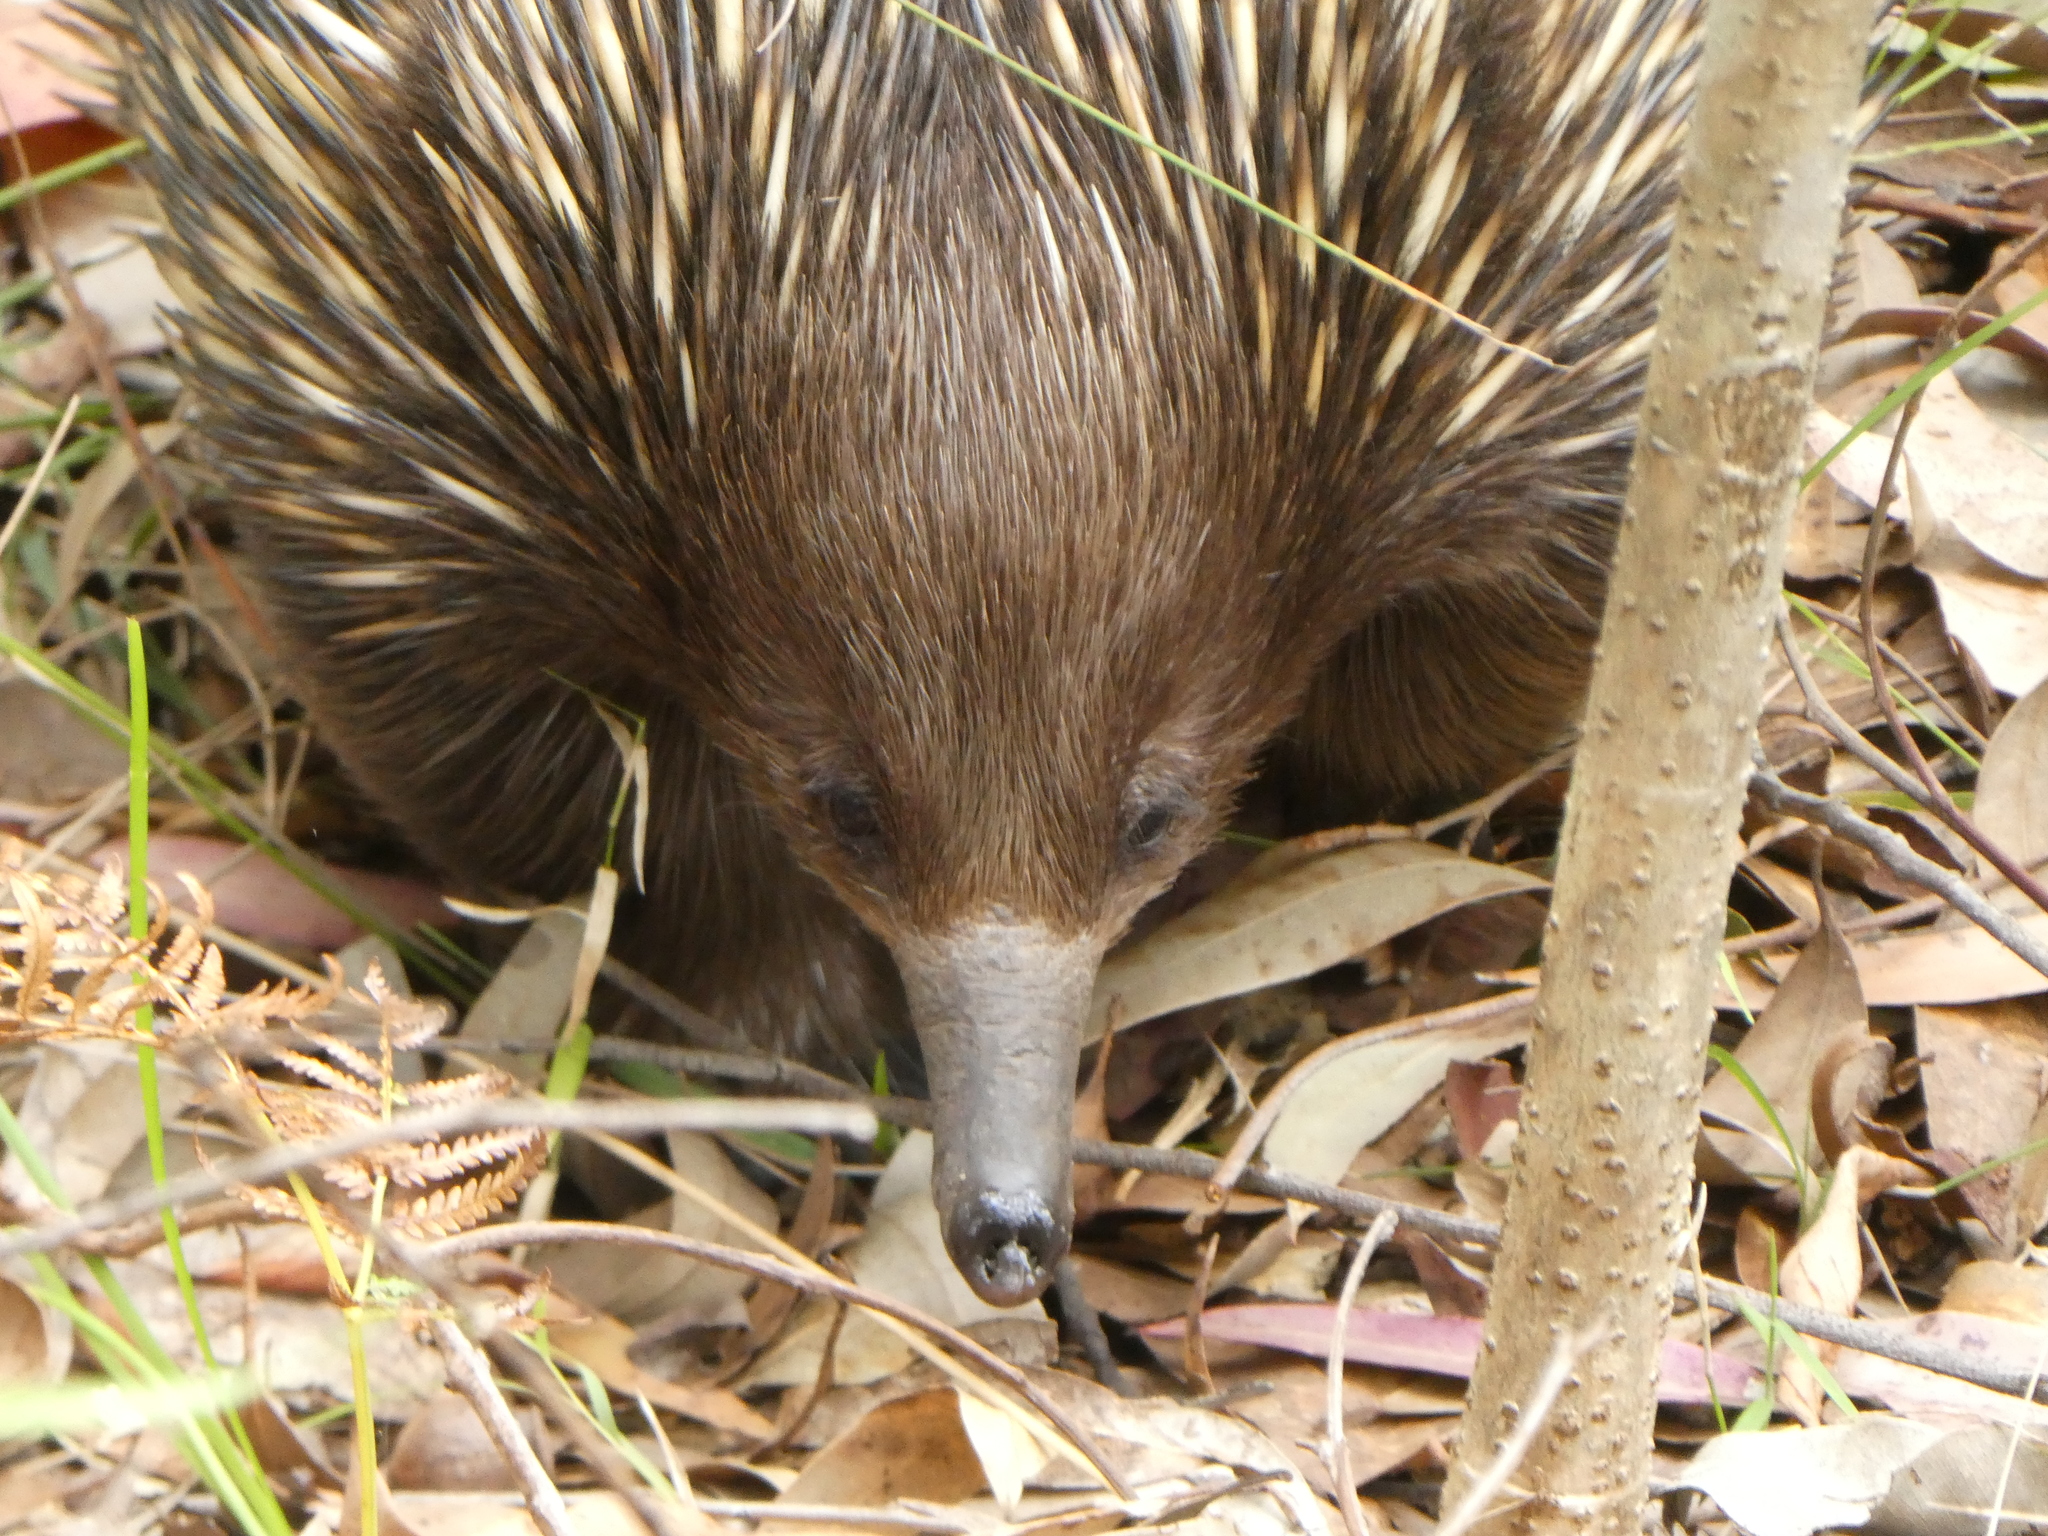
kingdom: Animalia
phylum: Chordata
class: Mammalia
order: Monotremata
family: Tachyglossidae
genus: Tachyglossus
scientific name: Tachyglossus aculeatus
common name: Short-beaked echidna
